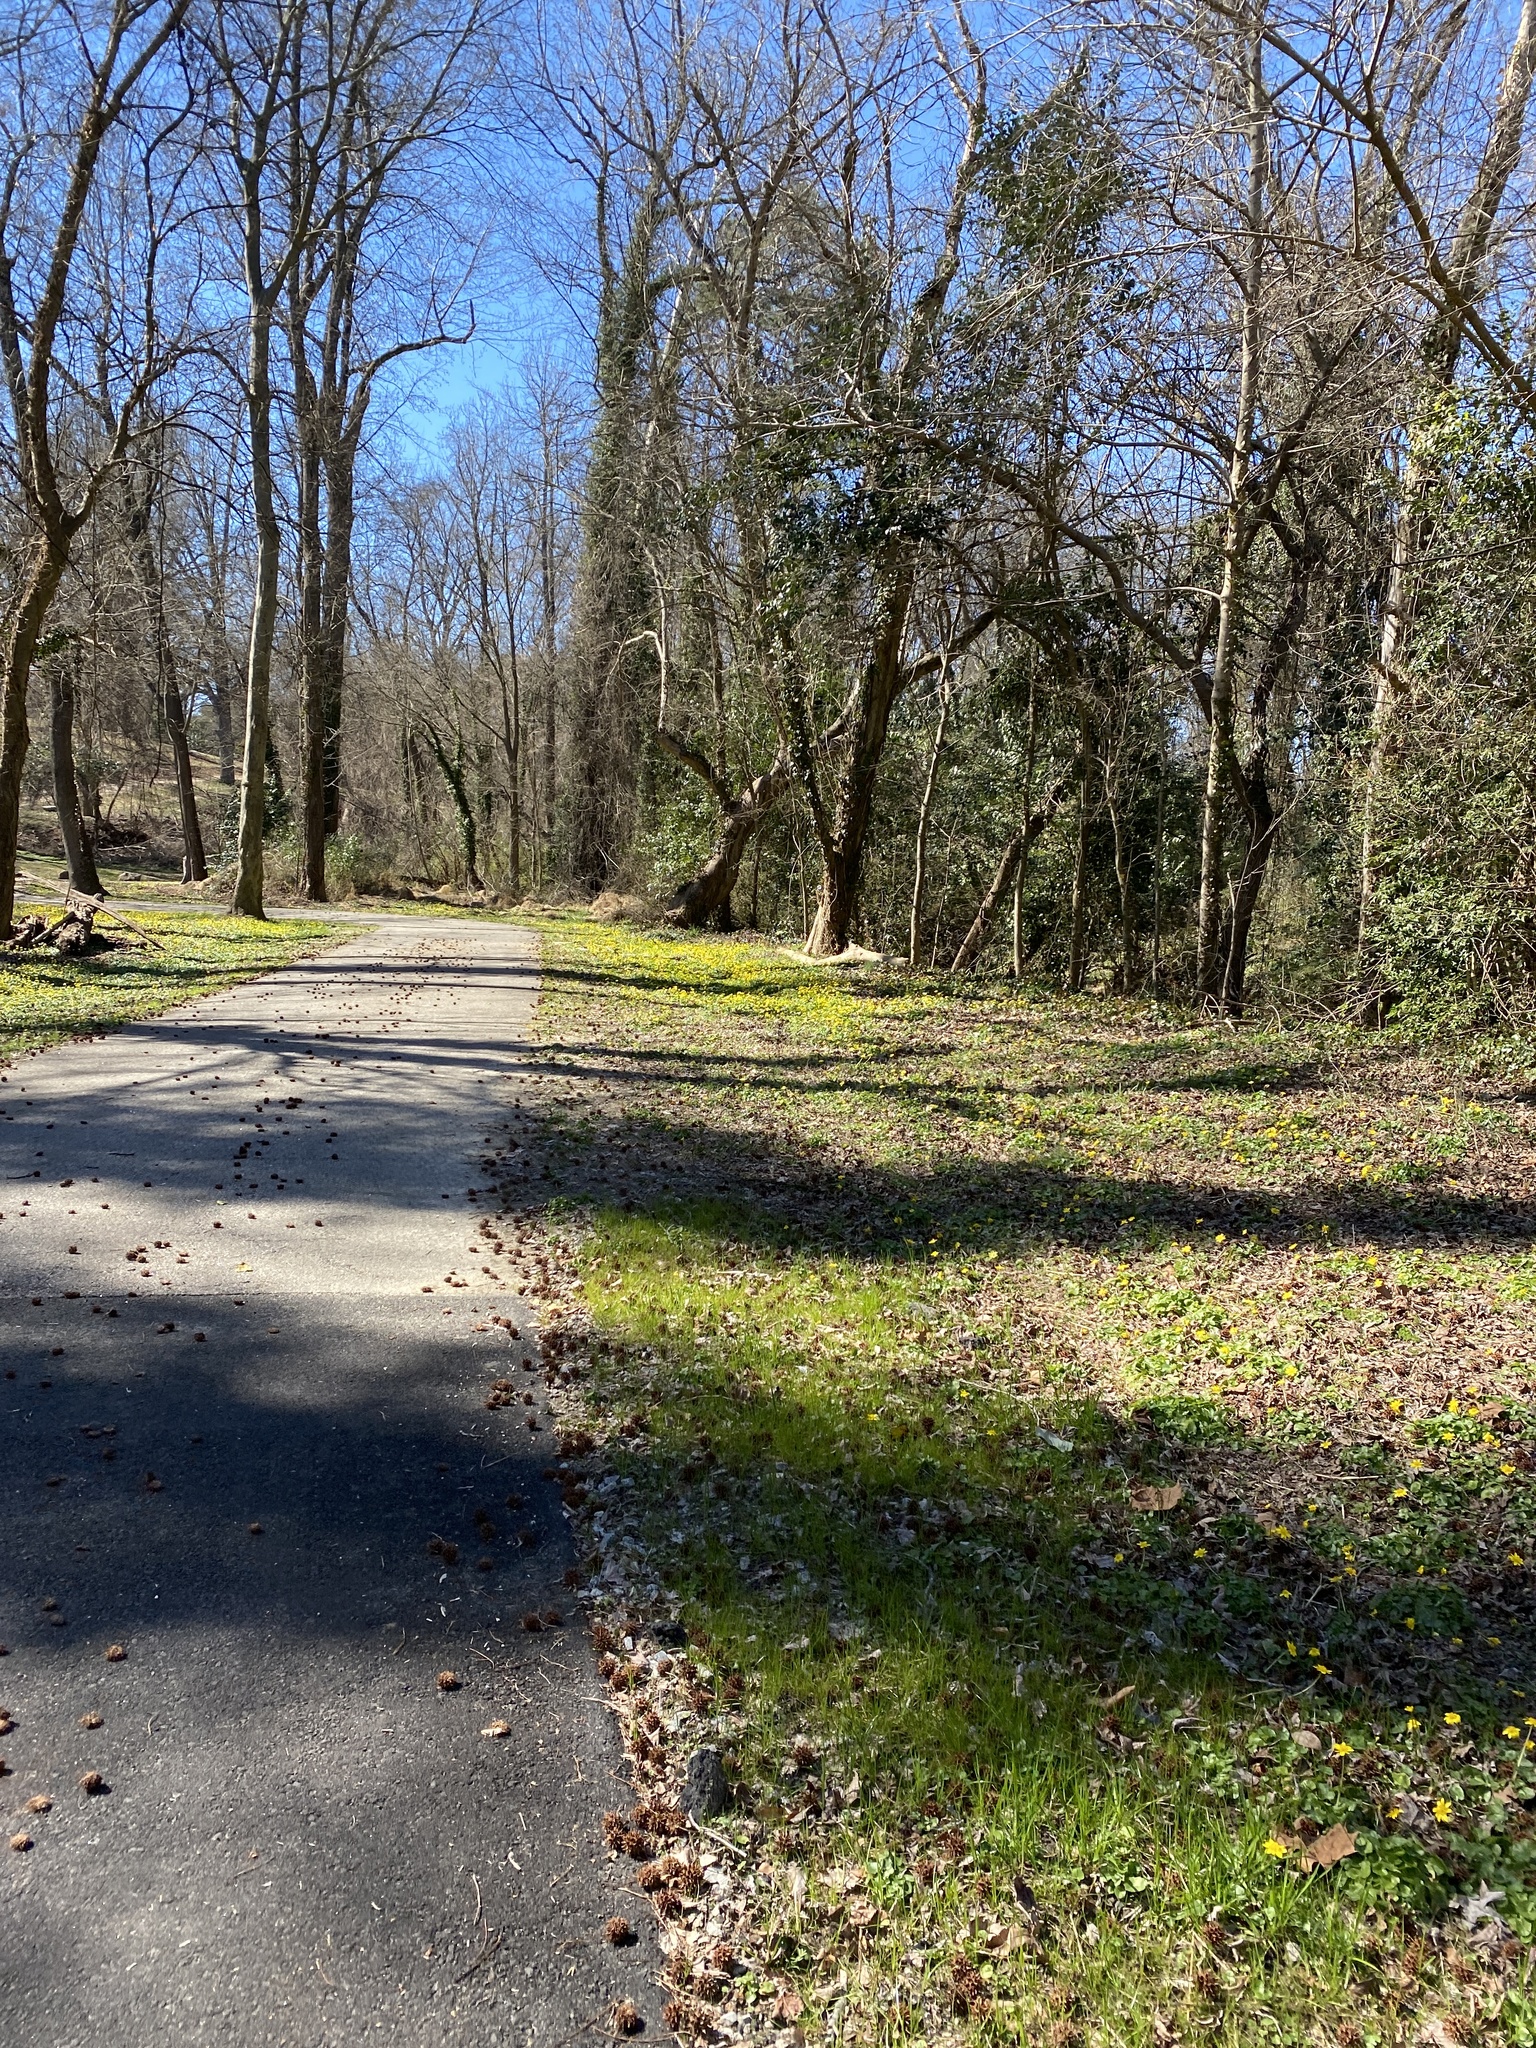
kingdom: Plantae
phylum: Tracheophyta
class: Magnoliopsida
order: Ranunculales
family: Ranunculaceae
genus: Ficaria
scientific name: Ficaria verna
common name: Lesser celandine
